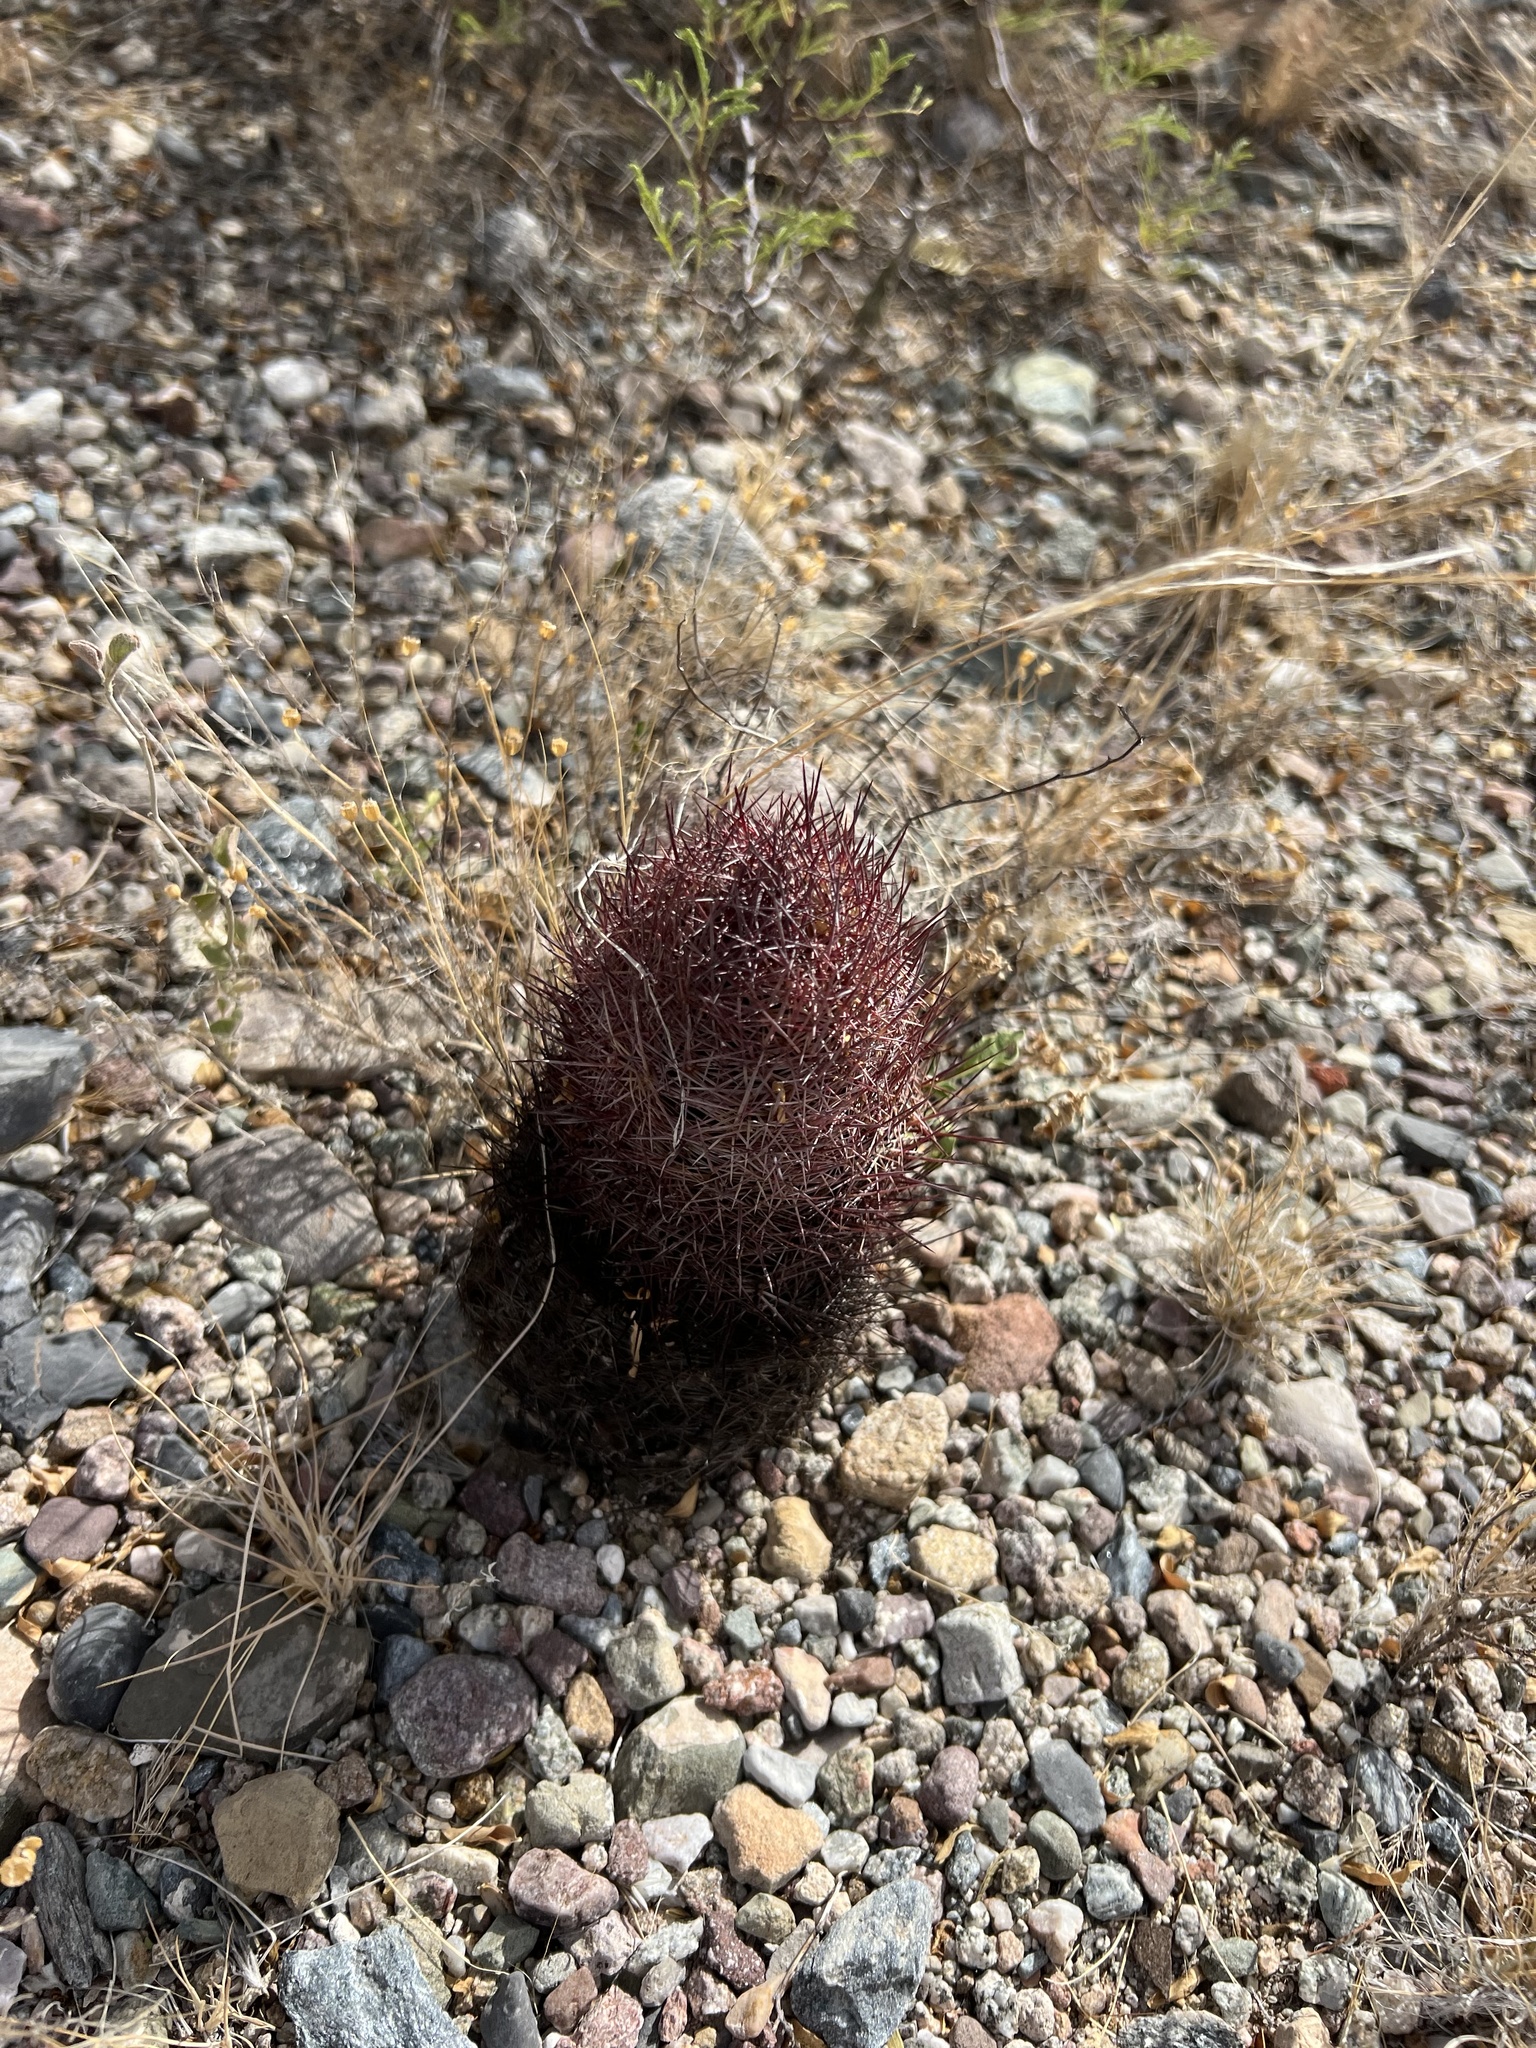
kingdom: Plantae
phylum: Tracheophyta
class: Magnoliopsida
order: Caryophyllales
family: Cactaceae
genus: Sclerocactus
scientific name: Sclerocactus johnsonii
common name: Eight-spine fishhook cactus
